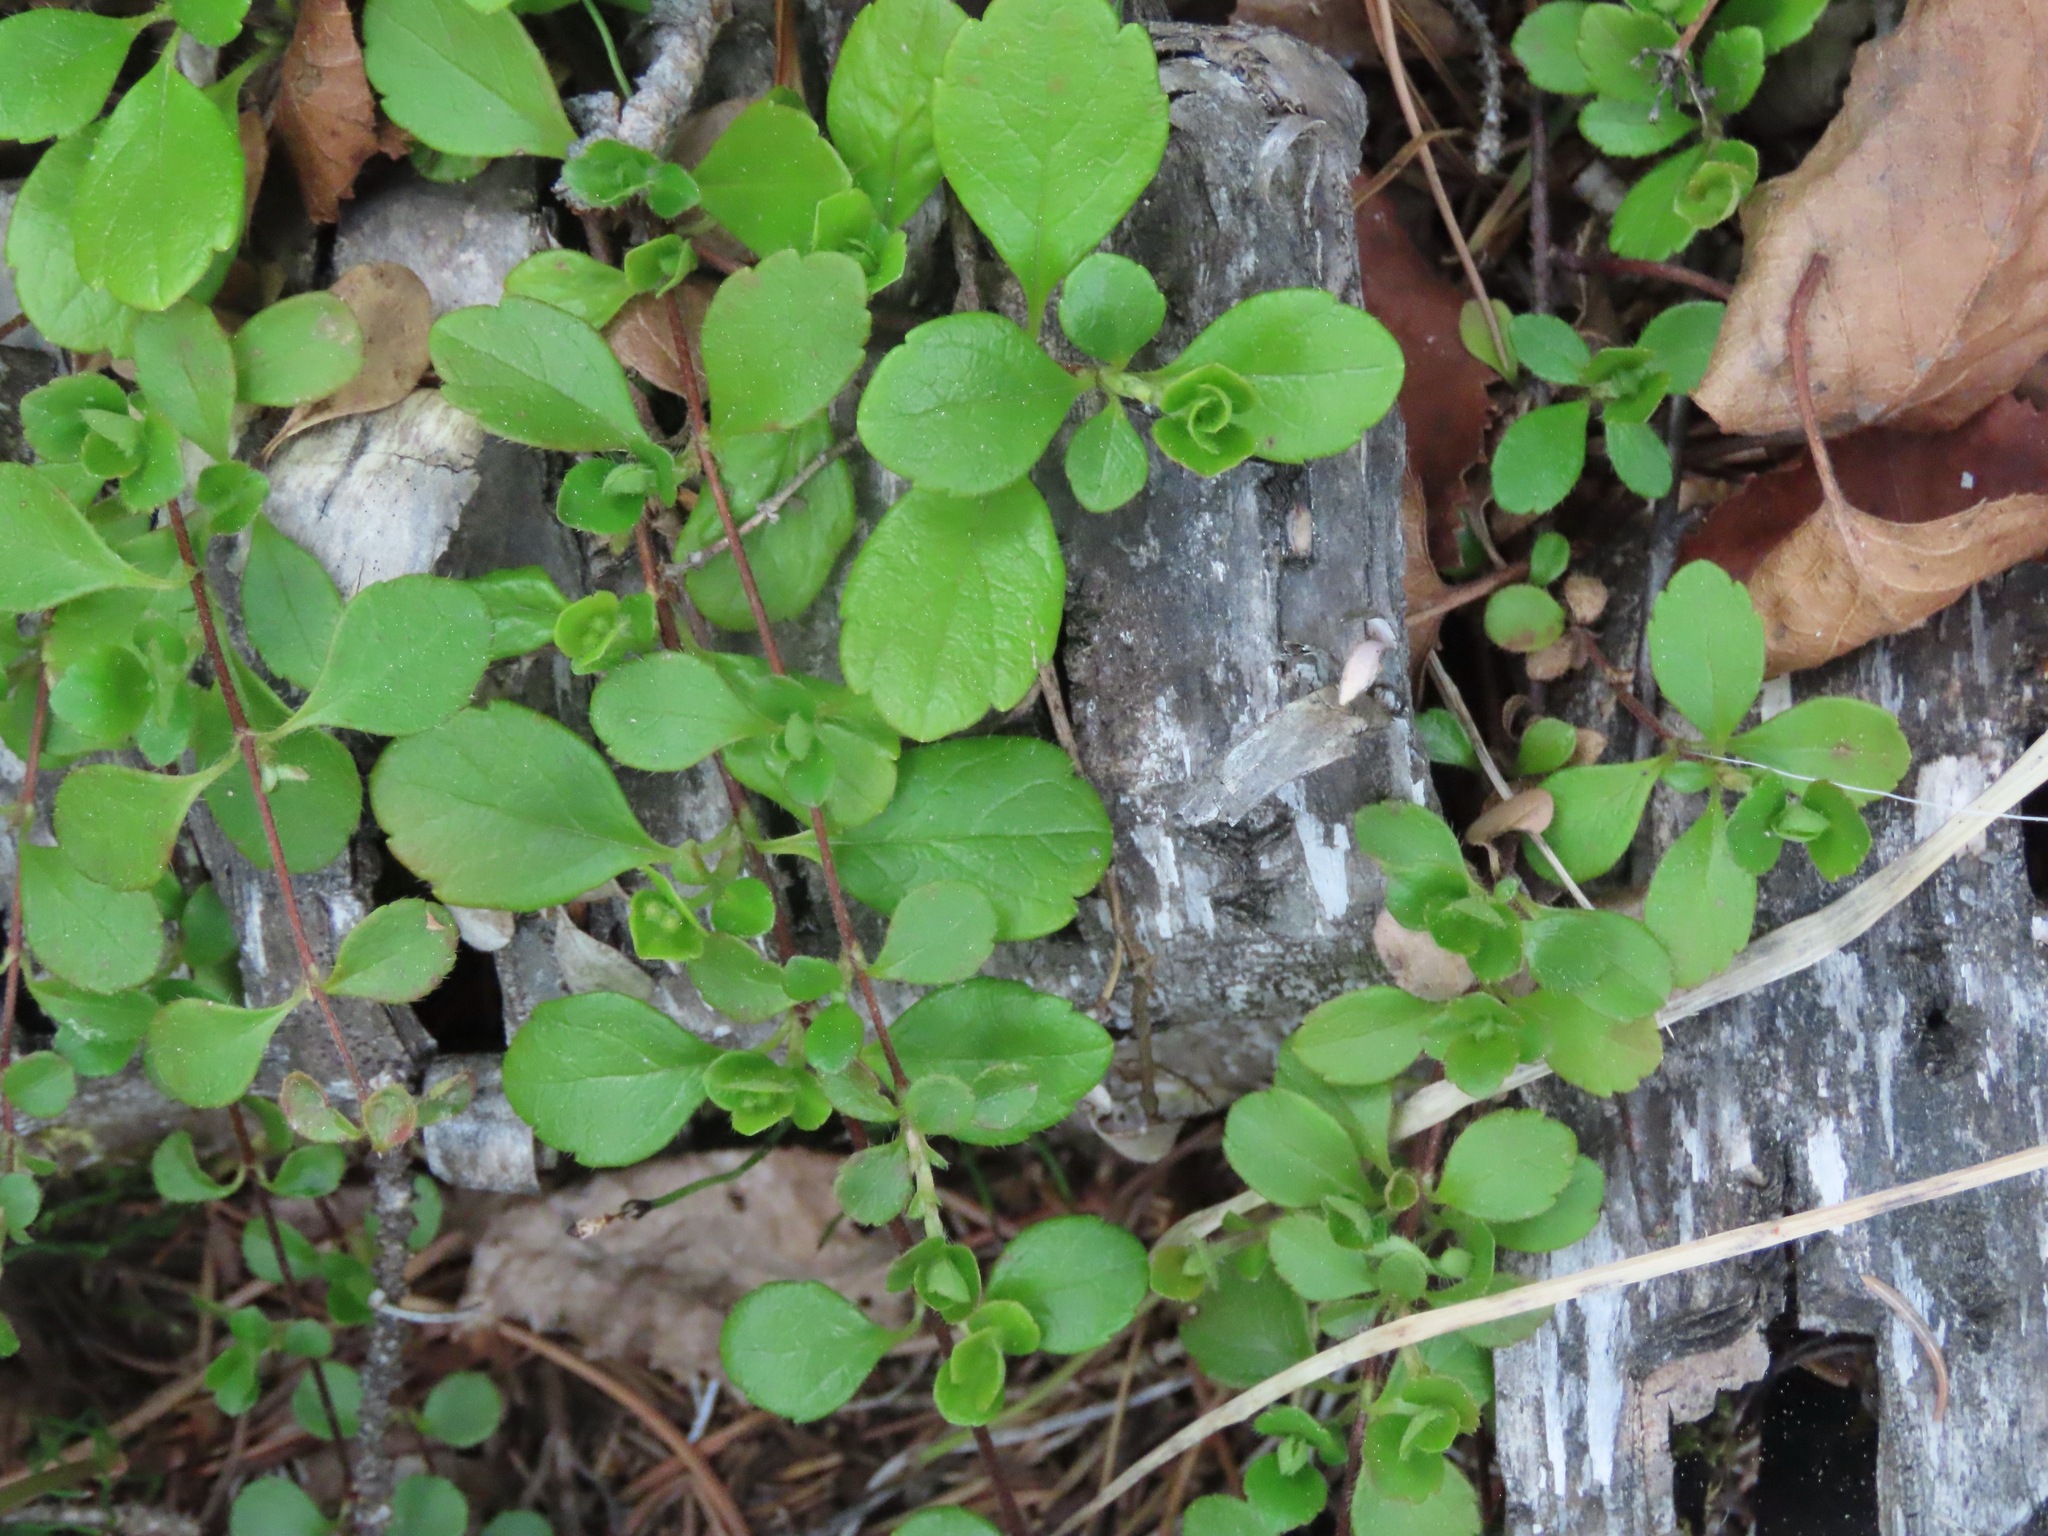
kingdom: Plantae
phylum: Tracheophyta
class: Magnoliopsida
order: Dipsacales
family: Caprifoliaceae
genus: Linnaea
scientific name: Linnaea borealis
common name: Twinflower
